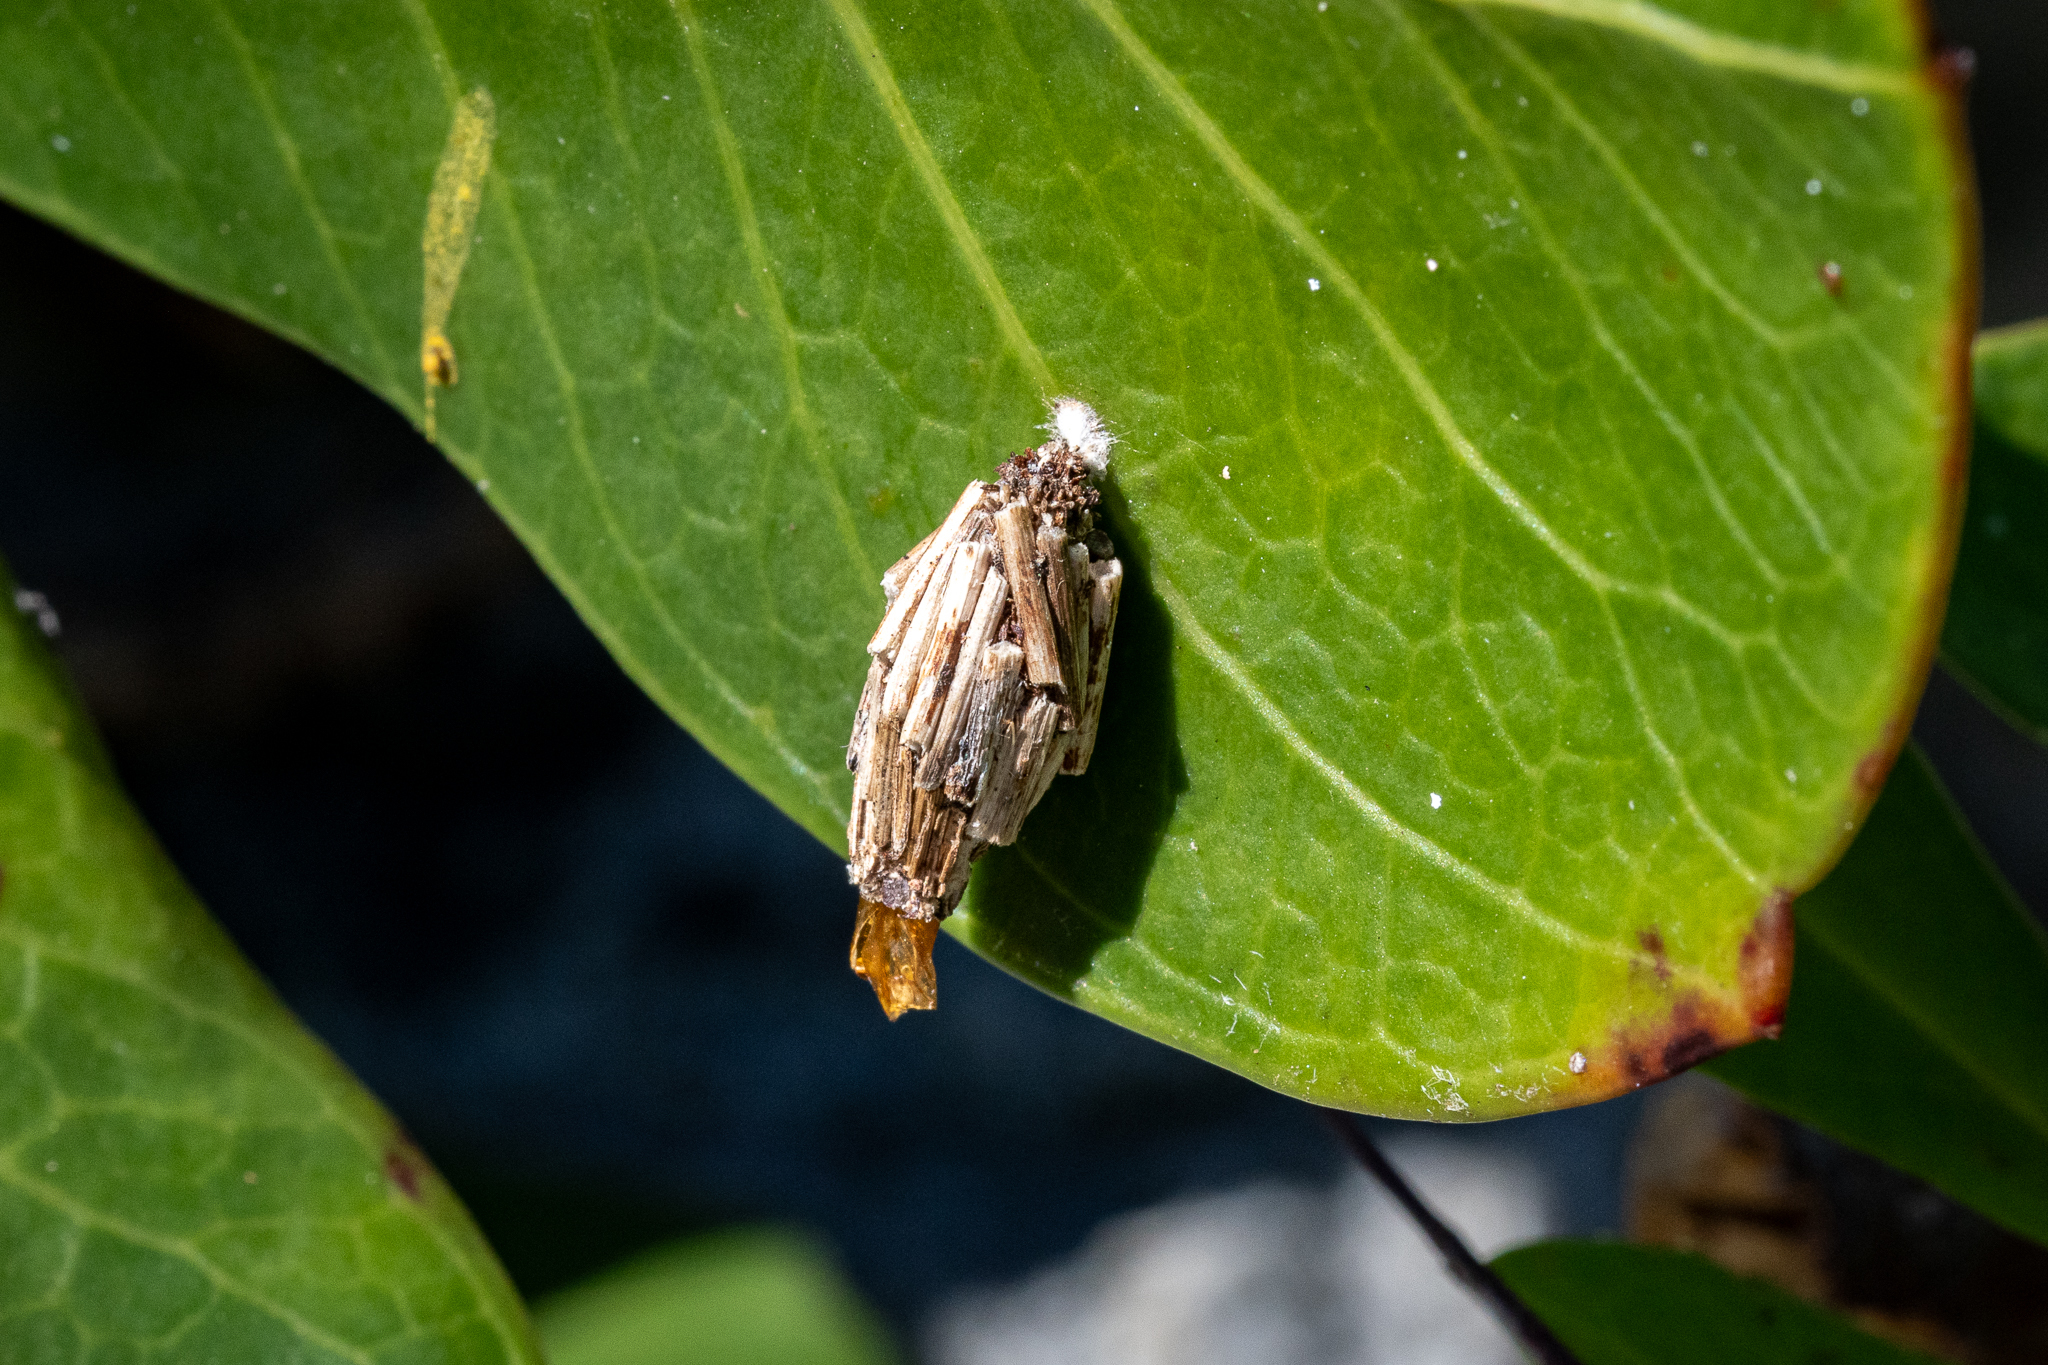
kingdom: Animalia
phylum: Arthropoda
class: Insecta
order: Lepidoptera
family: Psychidae
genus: Typhonia
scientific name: Typhonia picea
